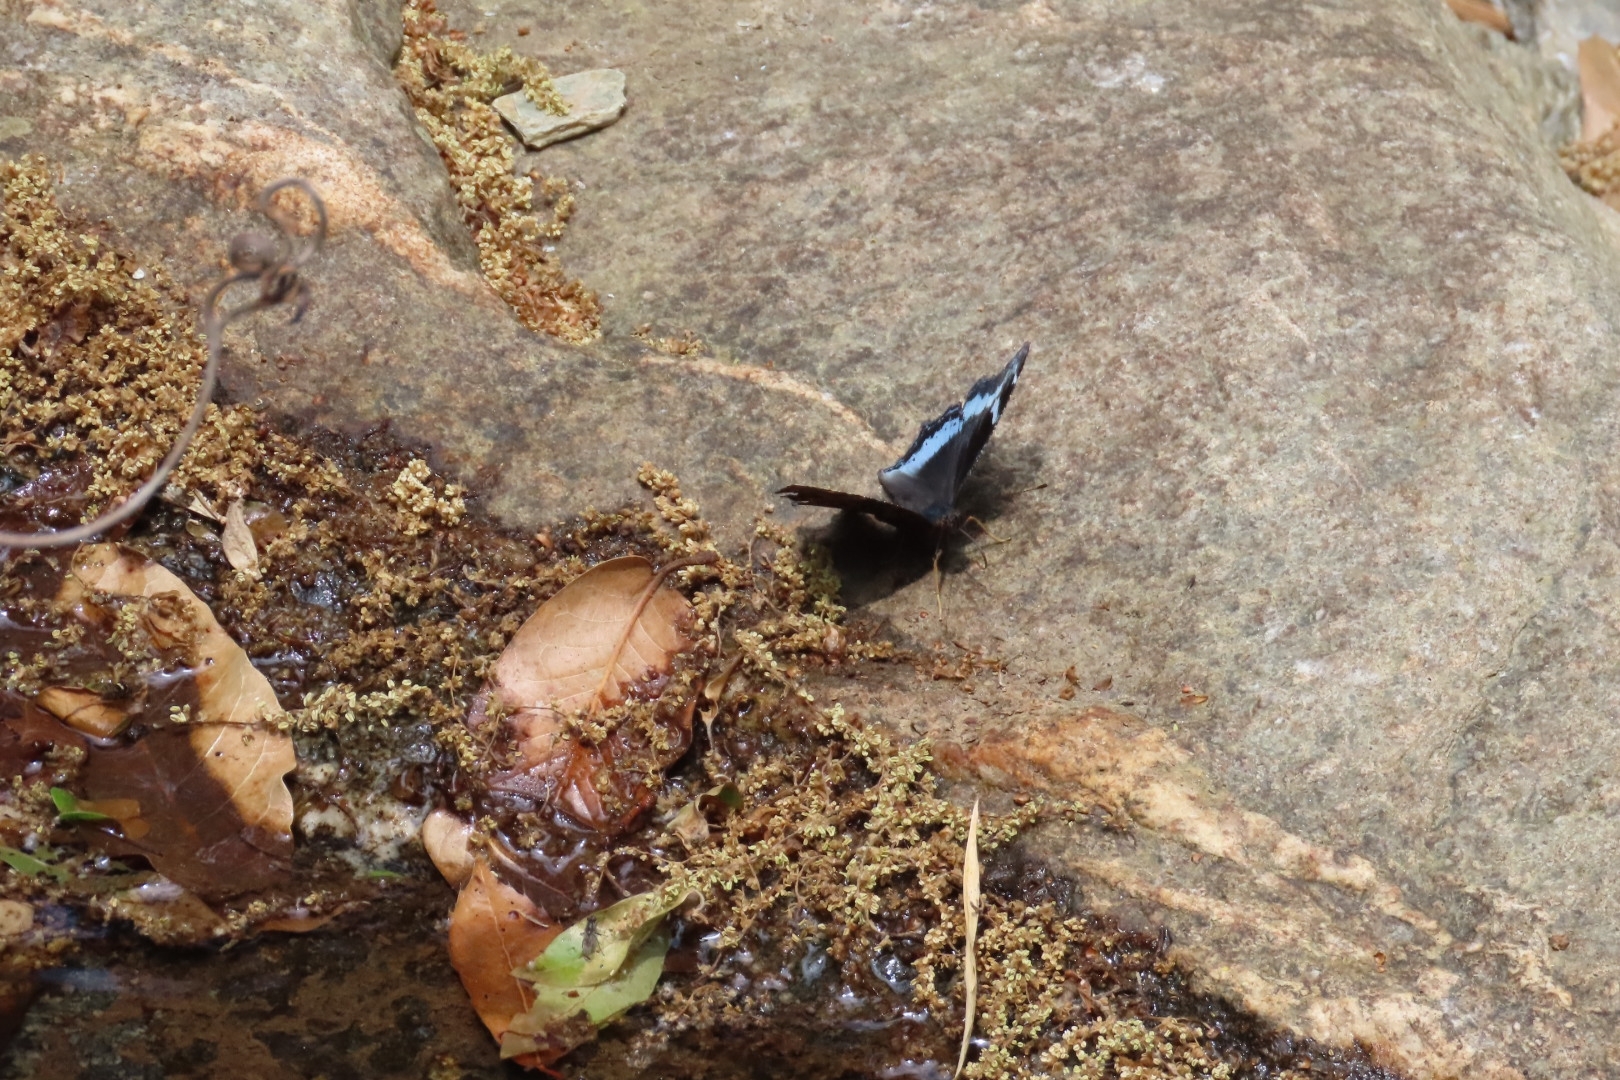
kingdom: Animalia
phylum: Arthropoda
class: Insecta
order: Lepidoptera
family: Nymphalidae
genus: Vanessa
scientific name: Vanessa Kaniska canace
